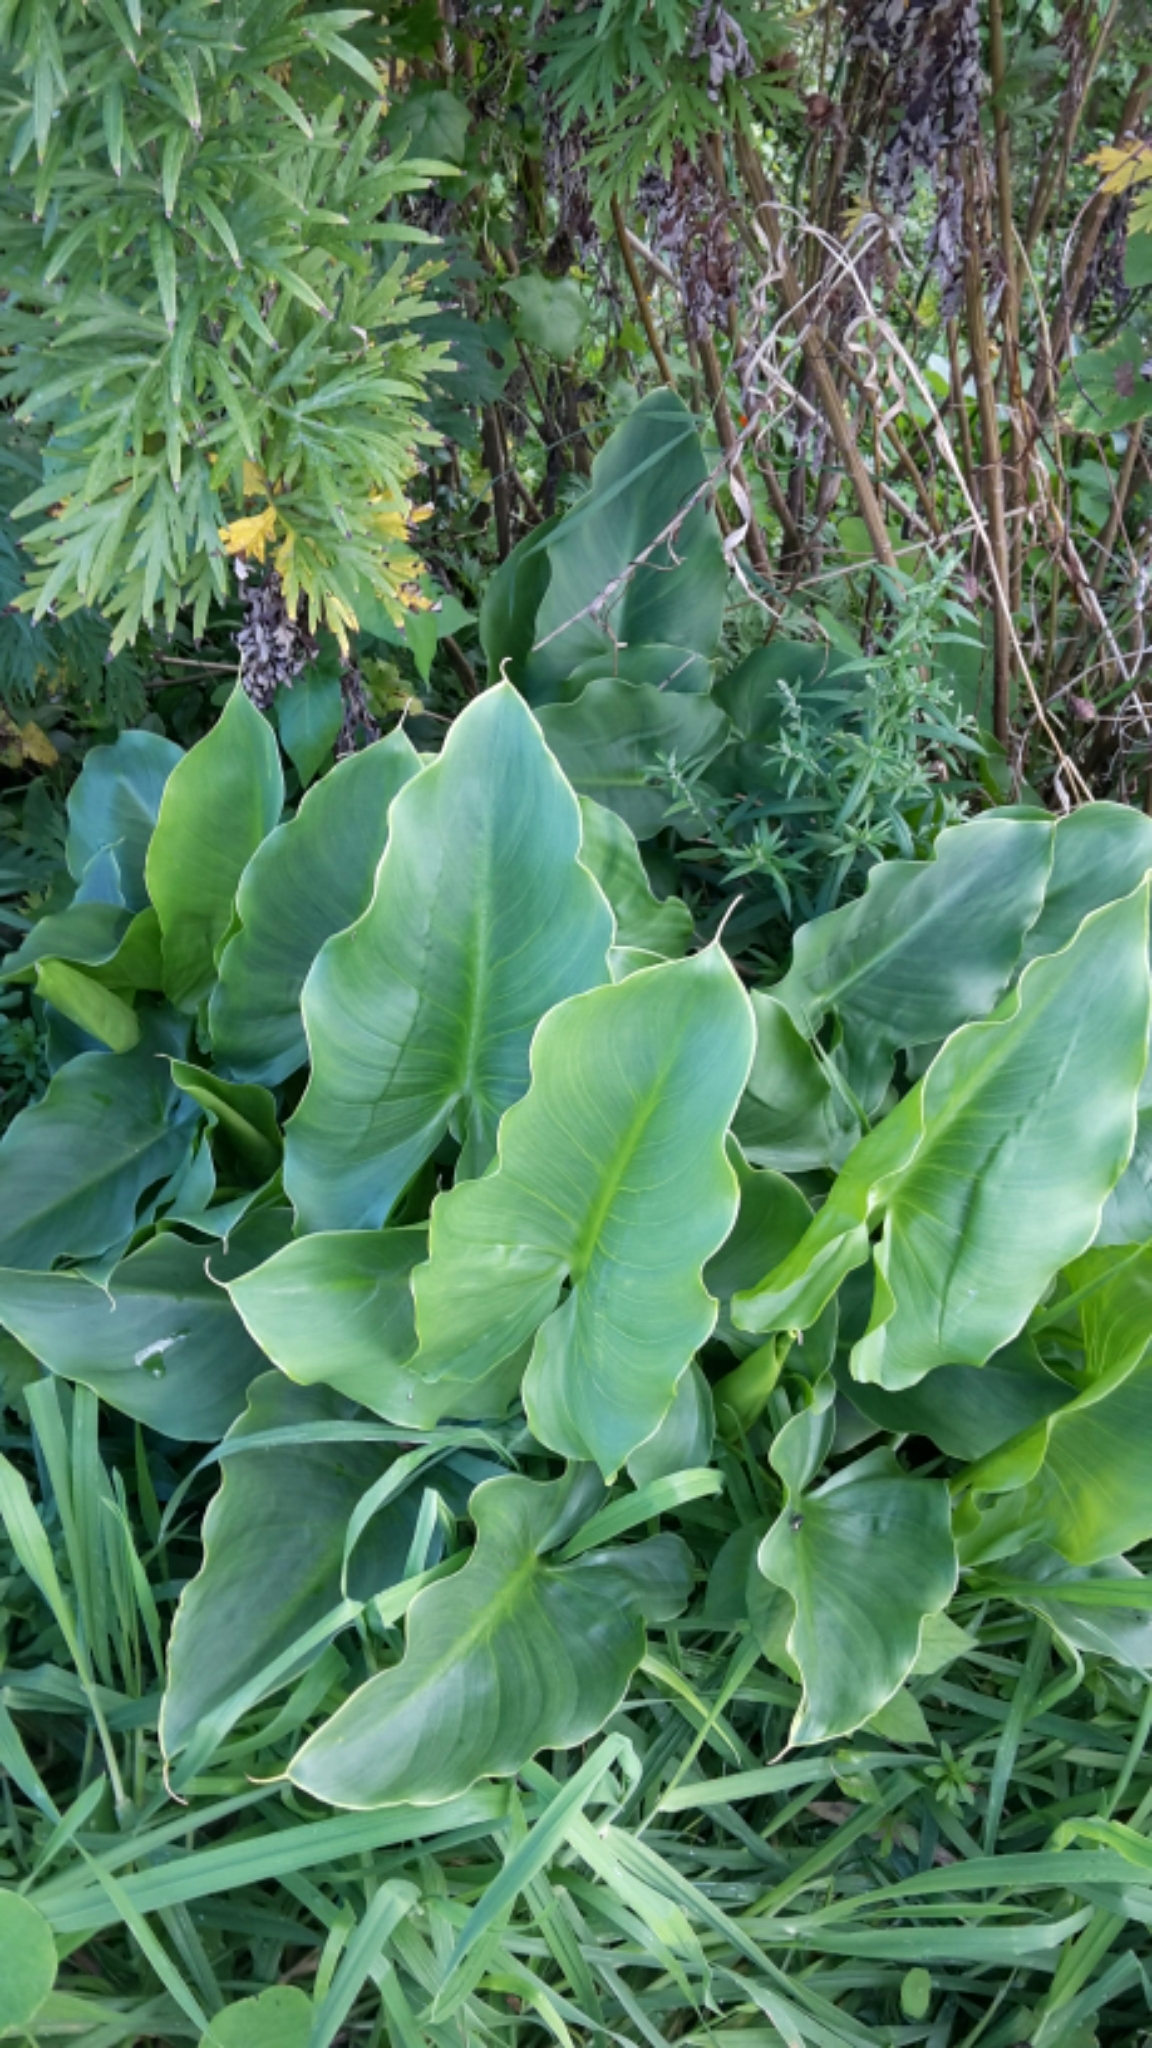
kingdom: Plantae
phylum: Tracheophyta
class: Liliopsida
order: Alismatales
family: Araceae
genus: Zantedeschia
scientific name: Zantedeschia aethiopica
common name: Altar-lily
